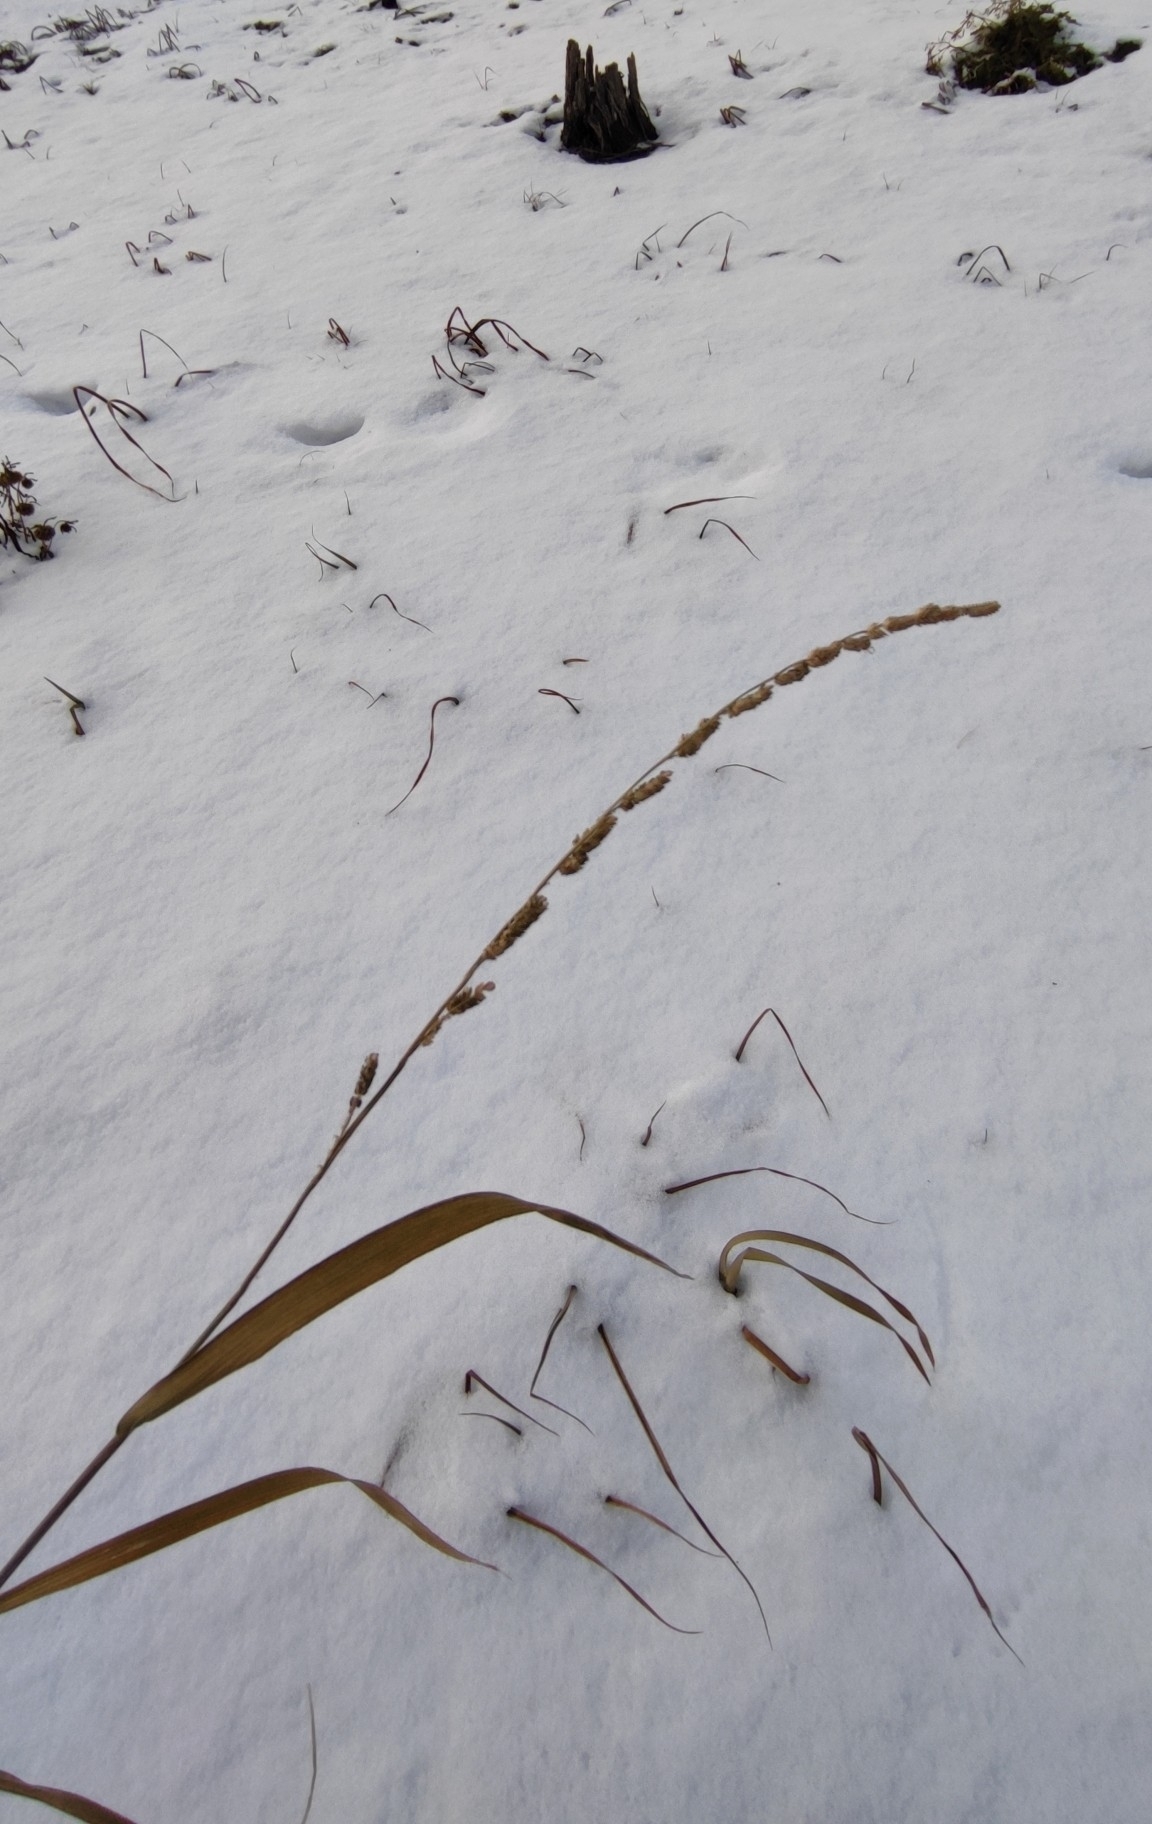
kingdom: Plantae
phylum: Tracheophyta
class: Liliopsida
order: Poales
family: Poaceae
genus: Beckmannia
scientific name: Beckmannia syzigachne
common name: American slough-grass
